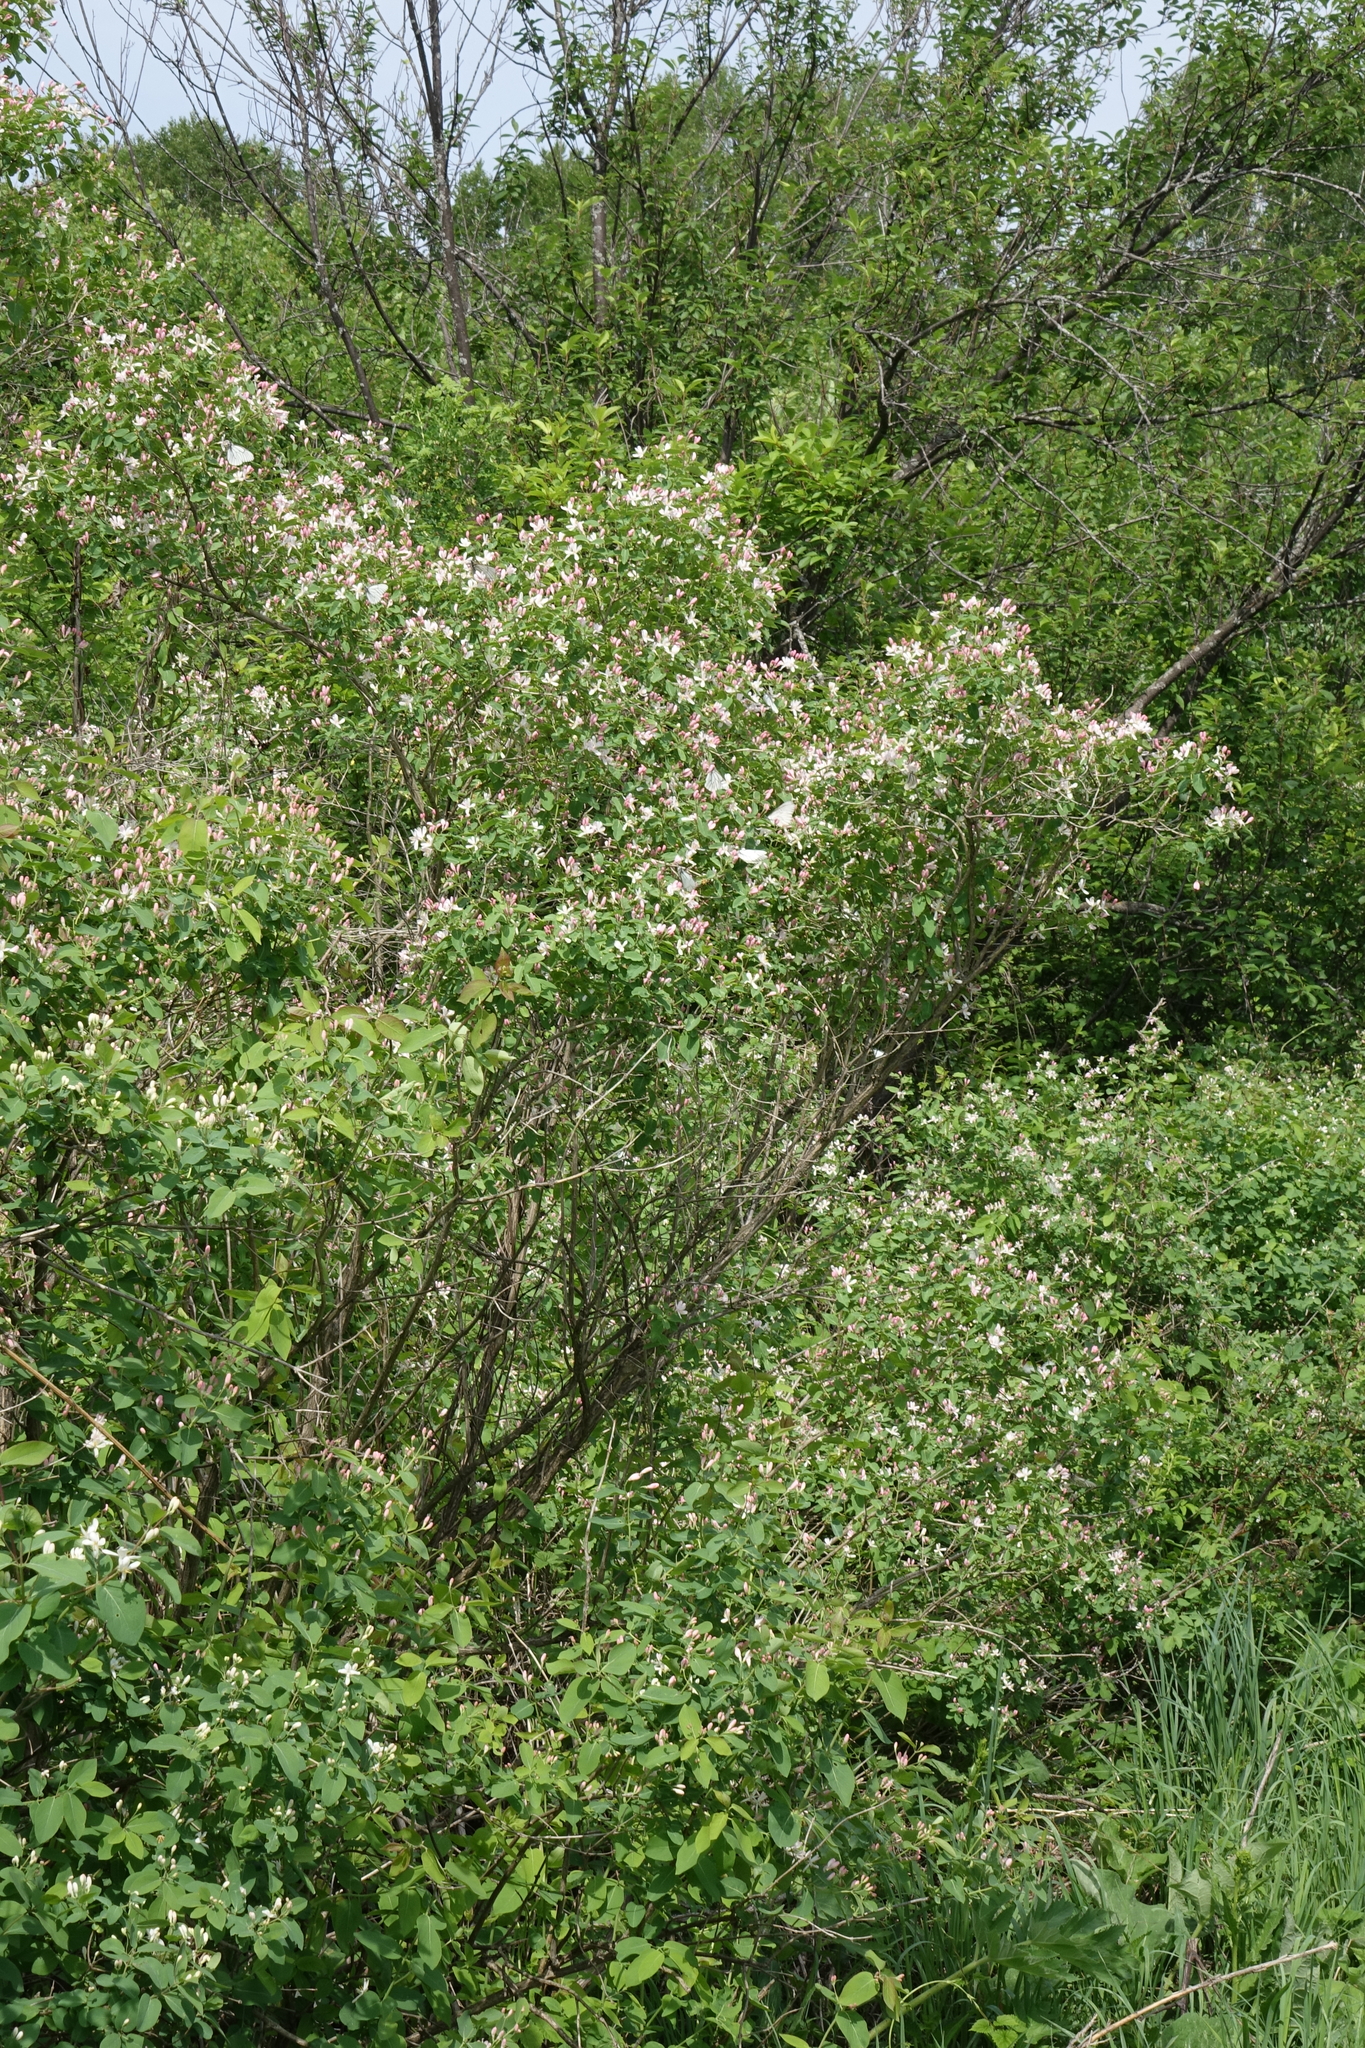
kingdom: Plantae
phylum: Tracheophyta
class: Magnoliopsida
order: Dipsacales
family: Caprifoliaceae
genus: Lonicera
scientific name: Lonicera tatarica
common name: Tatarian honeysuckle
